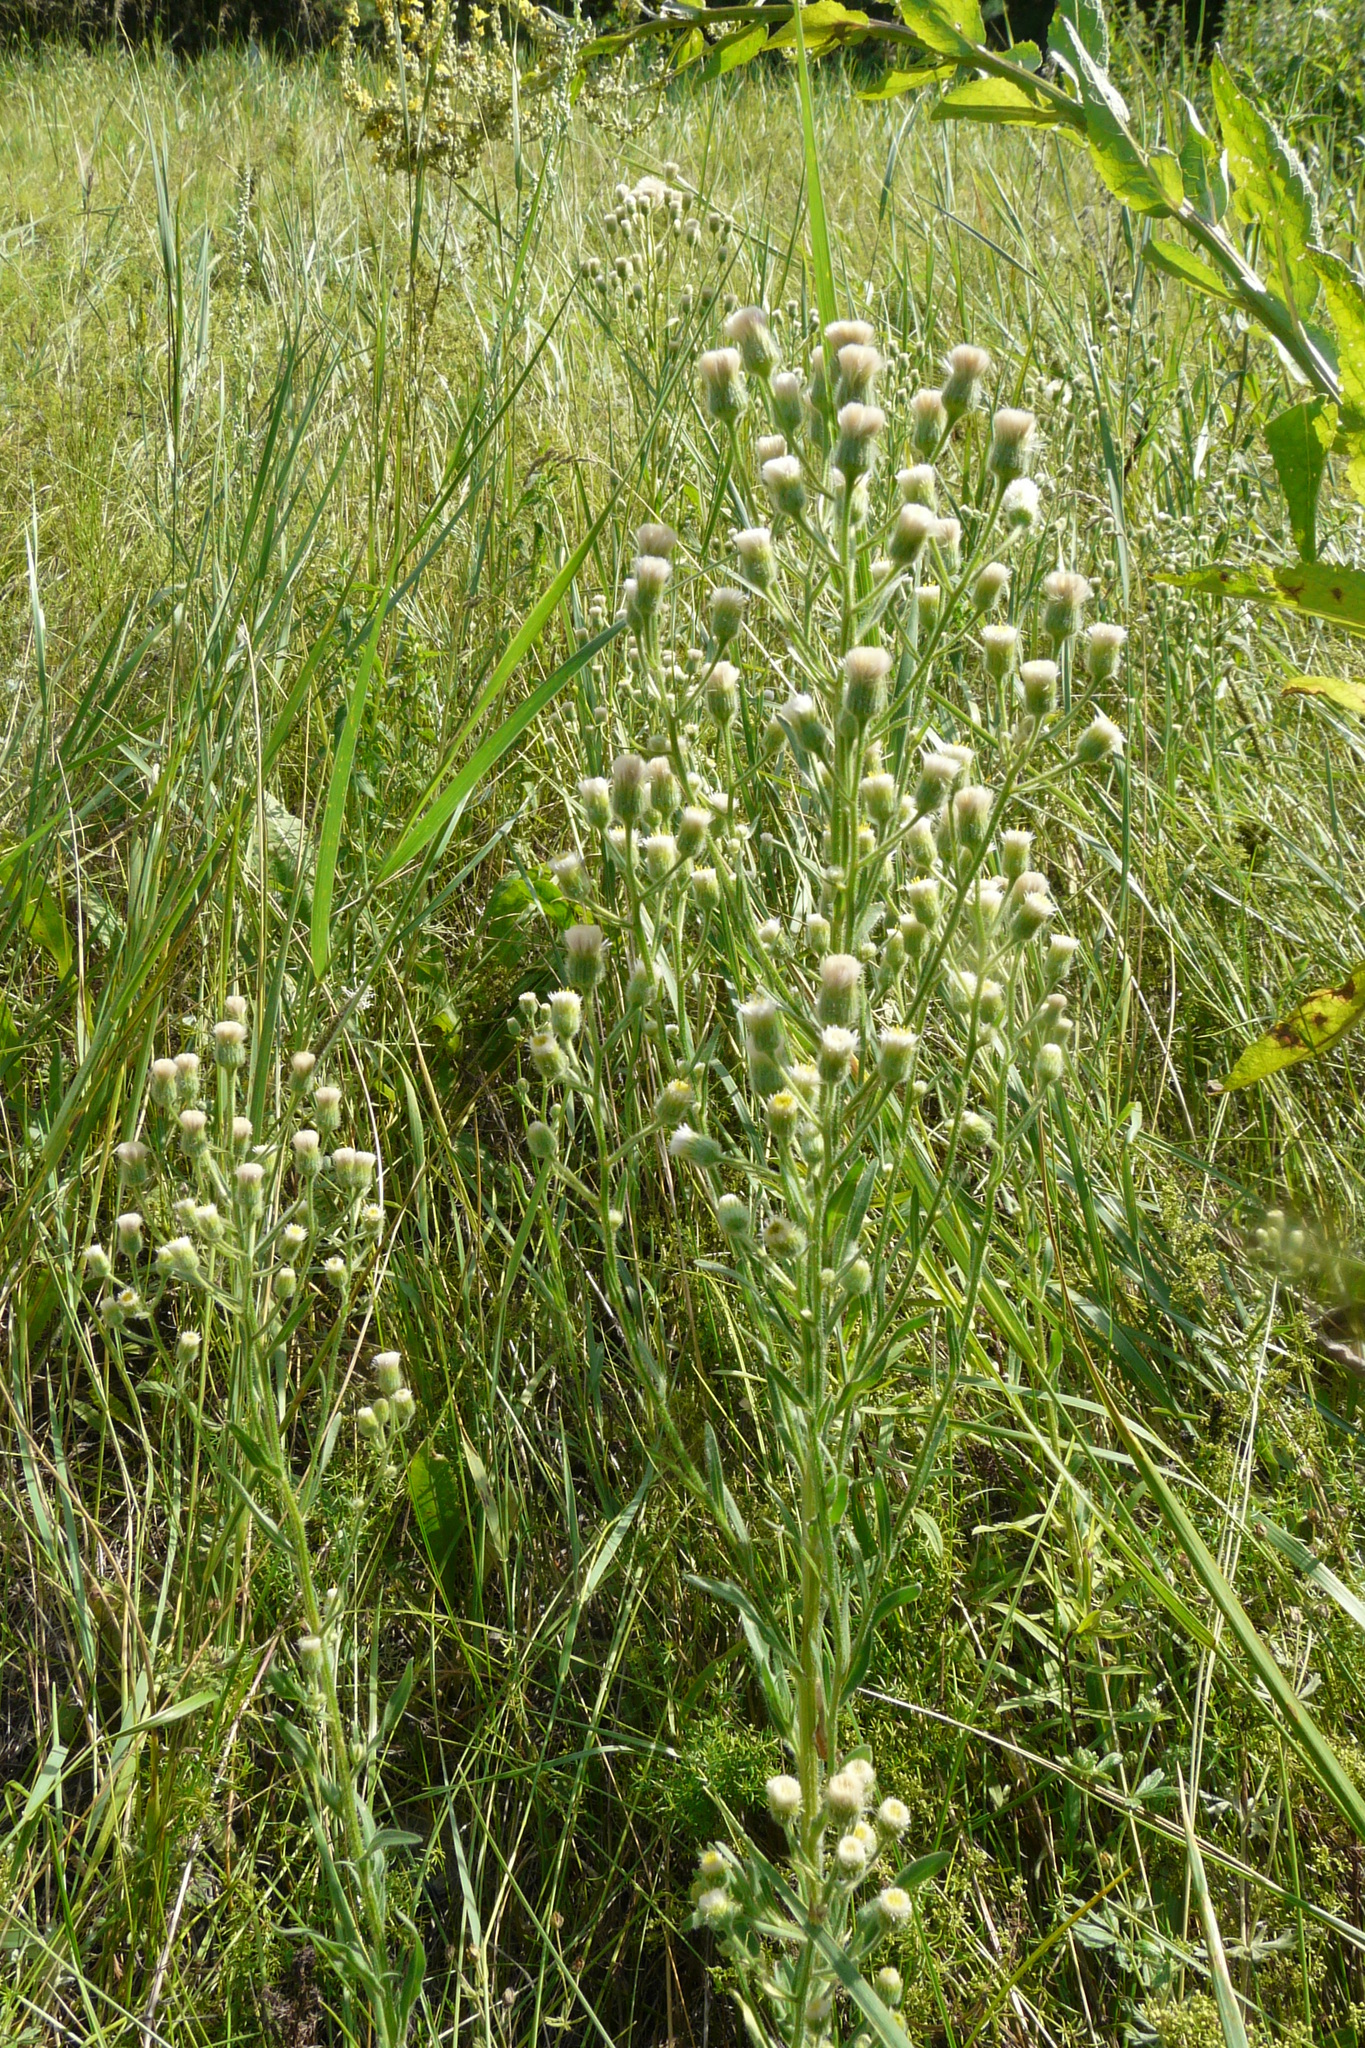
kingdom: Plantae
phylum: Tracheophyta
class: Magnoliopsida
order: Asterales
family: Asteraceae
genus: Erigeron
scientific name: Erigeron acris
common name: Blue fleabane
